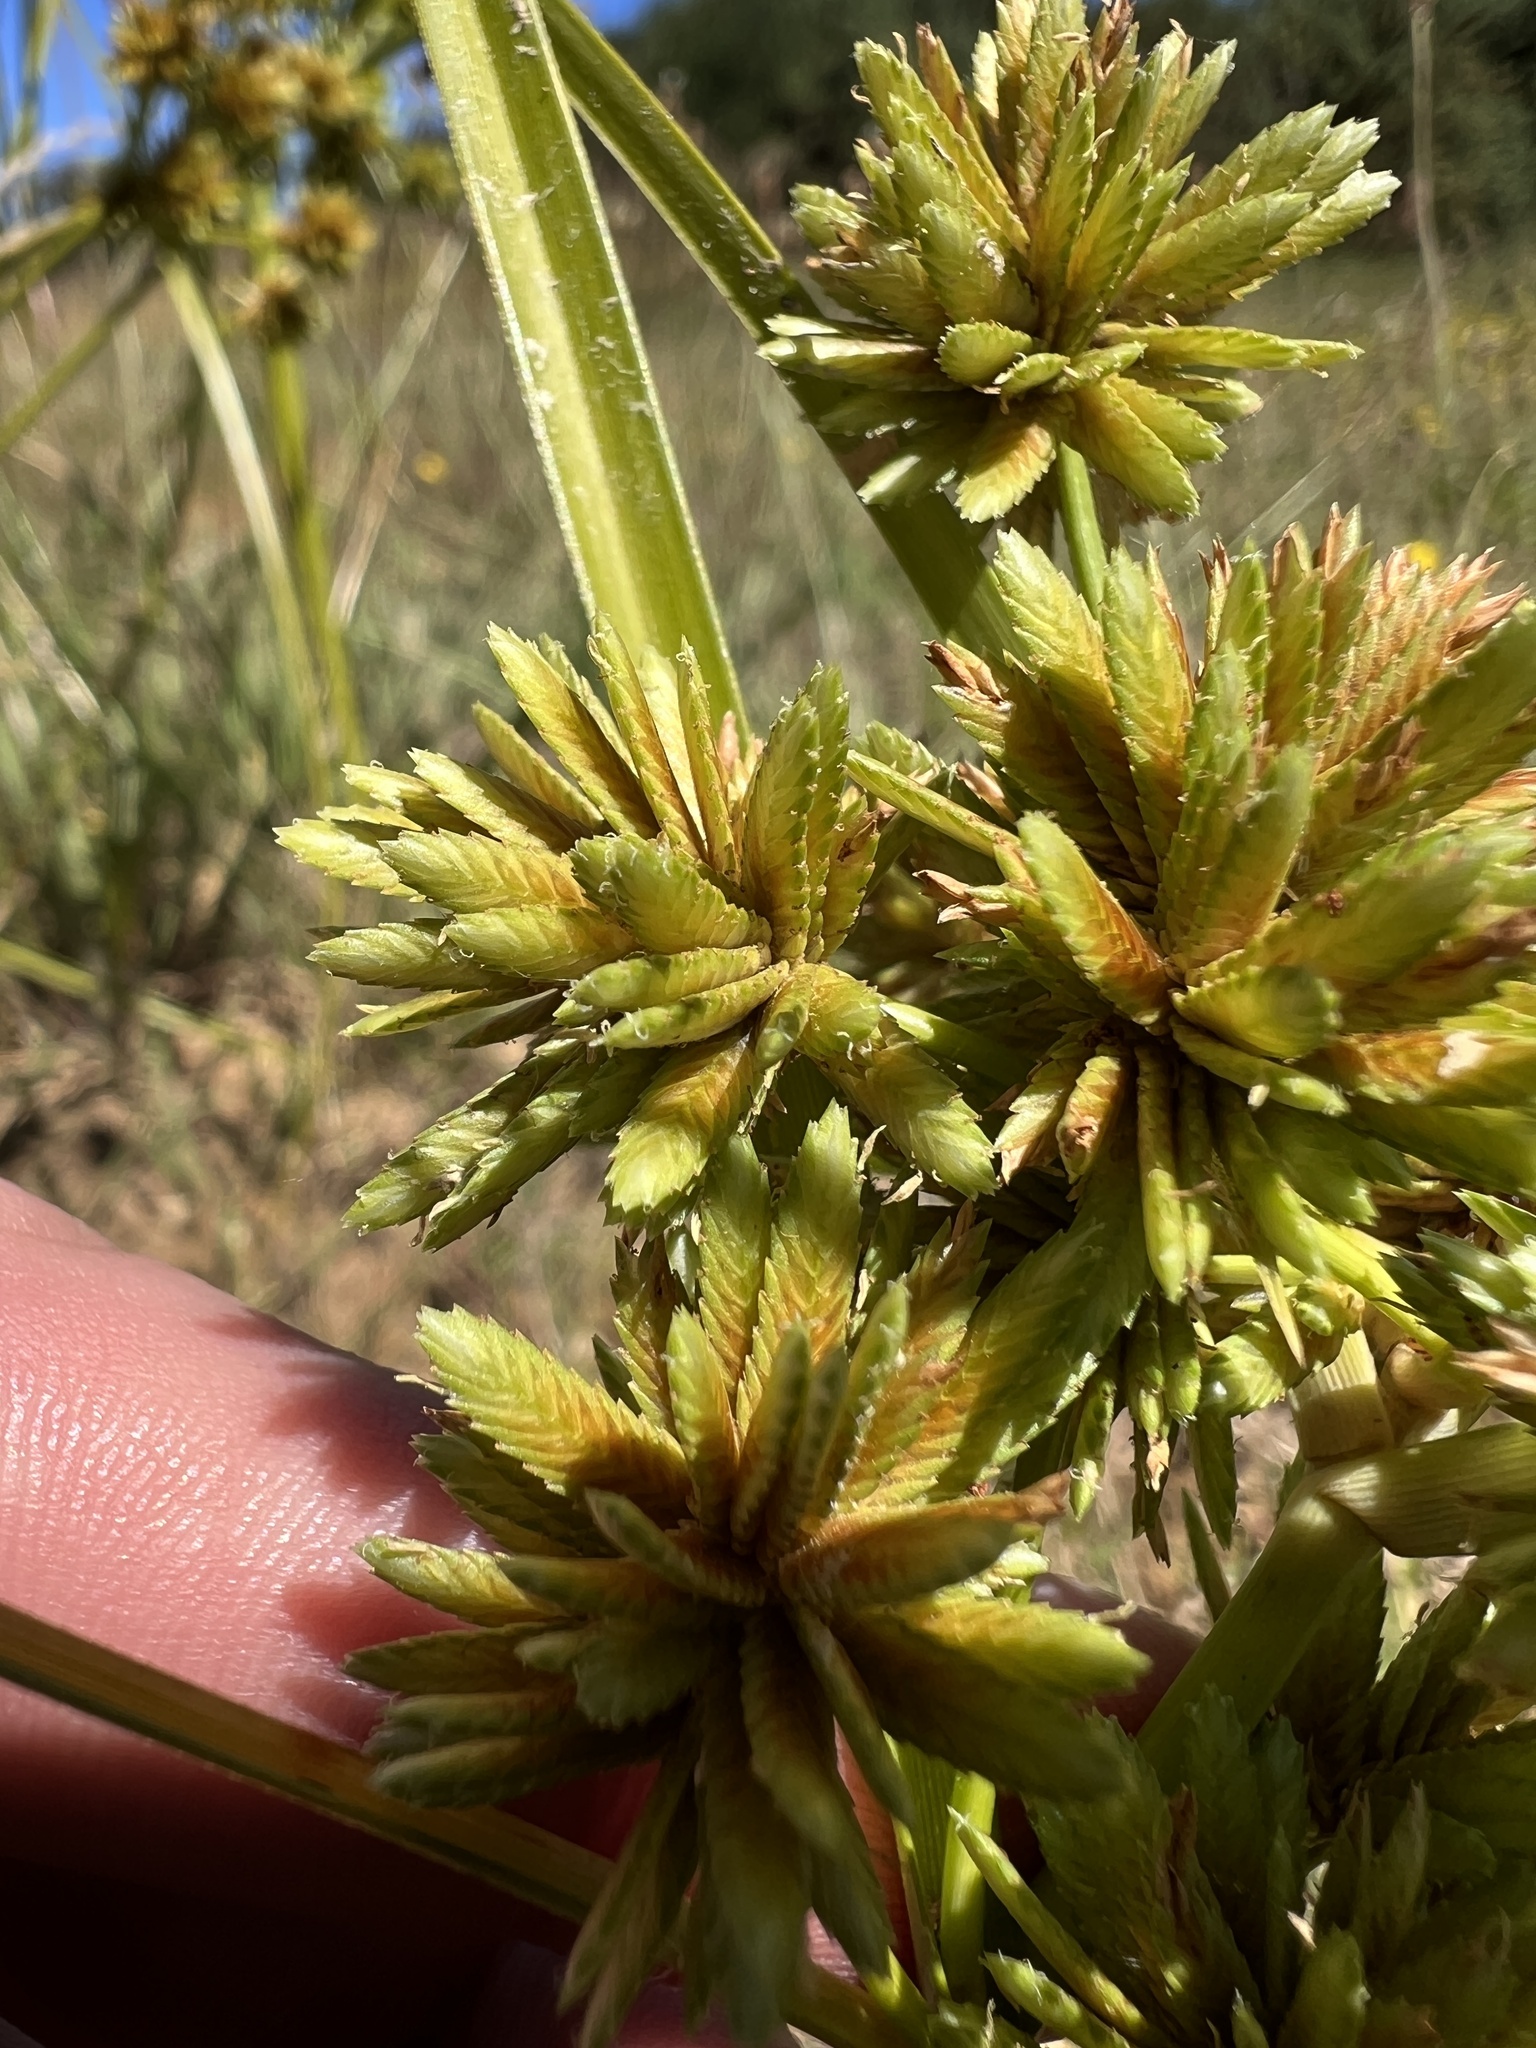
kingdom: Plantae
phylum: Tracheophyta
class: Liliopsida
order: Poales
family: Cyperaceae
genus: Cyperus
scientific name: Cyperus eragrostis
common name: Tall flatsedge
